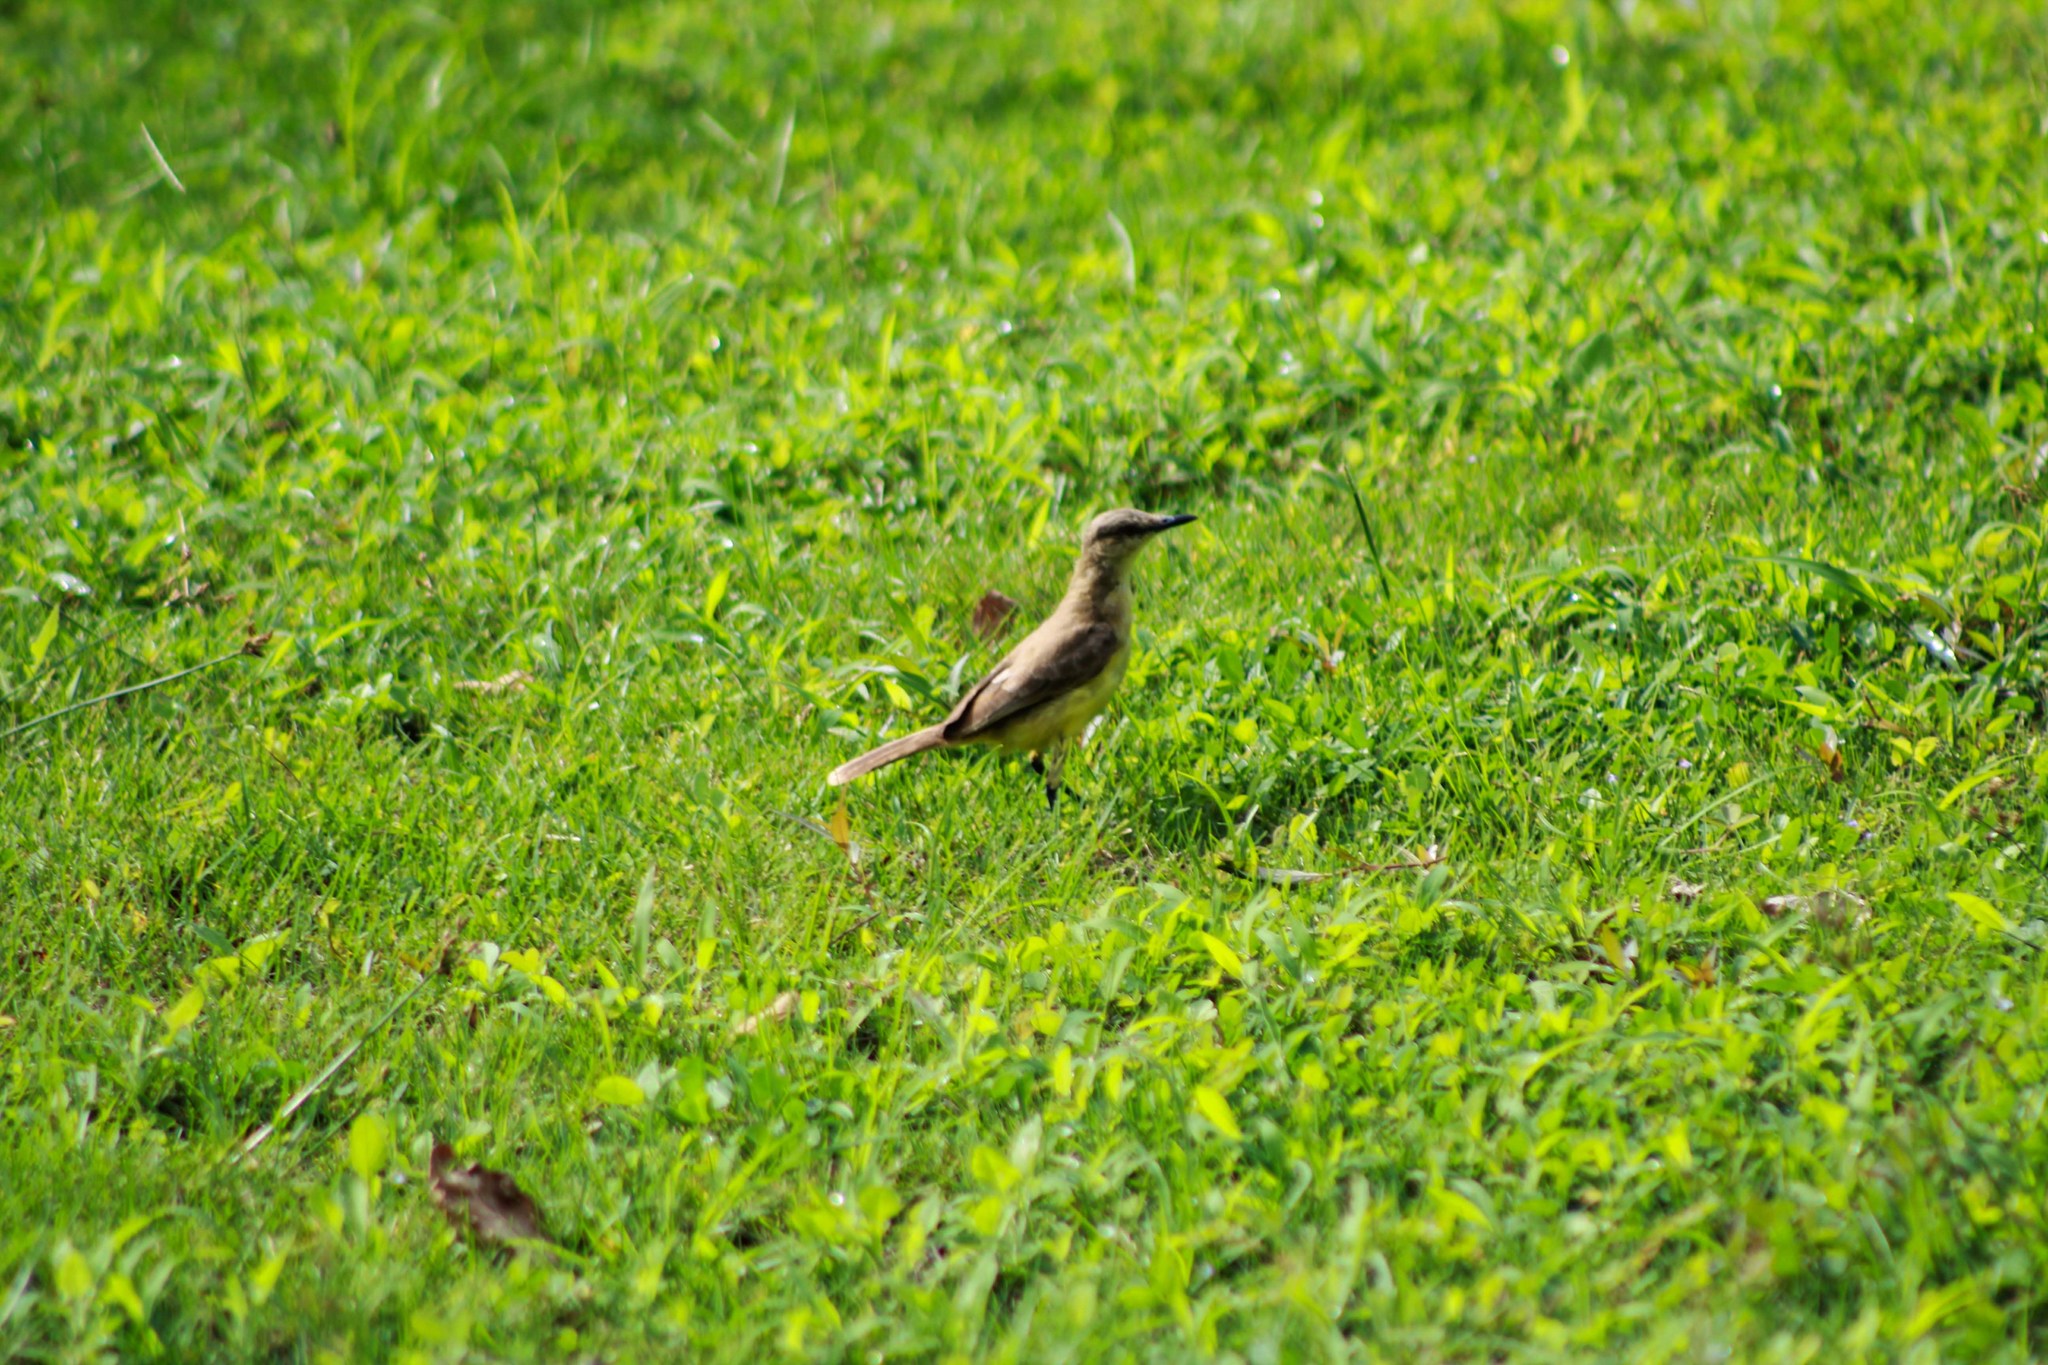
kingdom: Animalia
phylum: Chordata
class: Aves
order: Passeriformes
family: Tyrannidae
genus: Machetornis
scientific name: Machetornis rixosa
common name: Cattle tyrant
